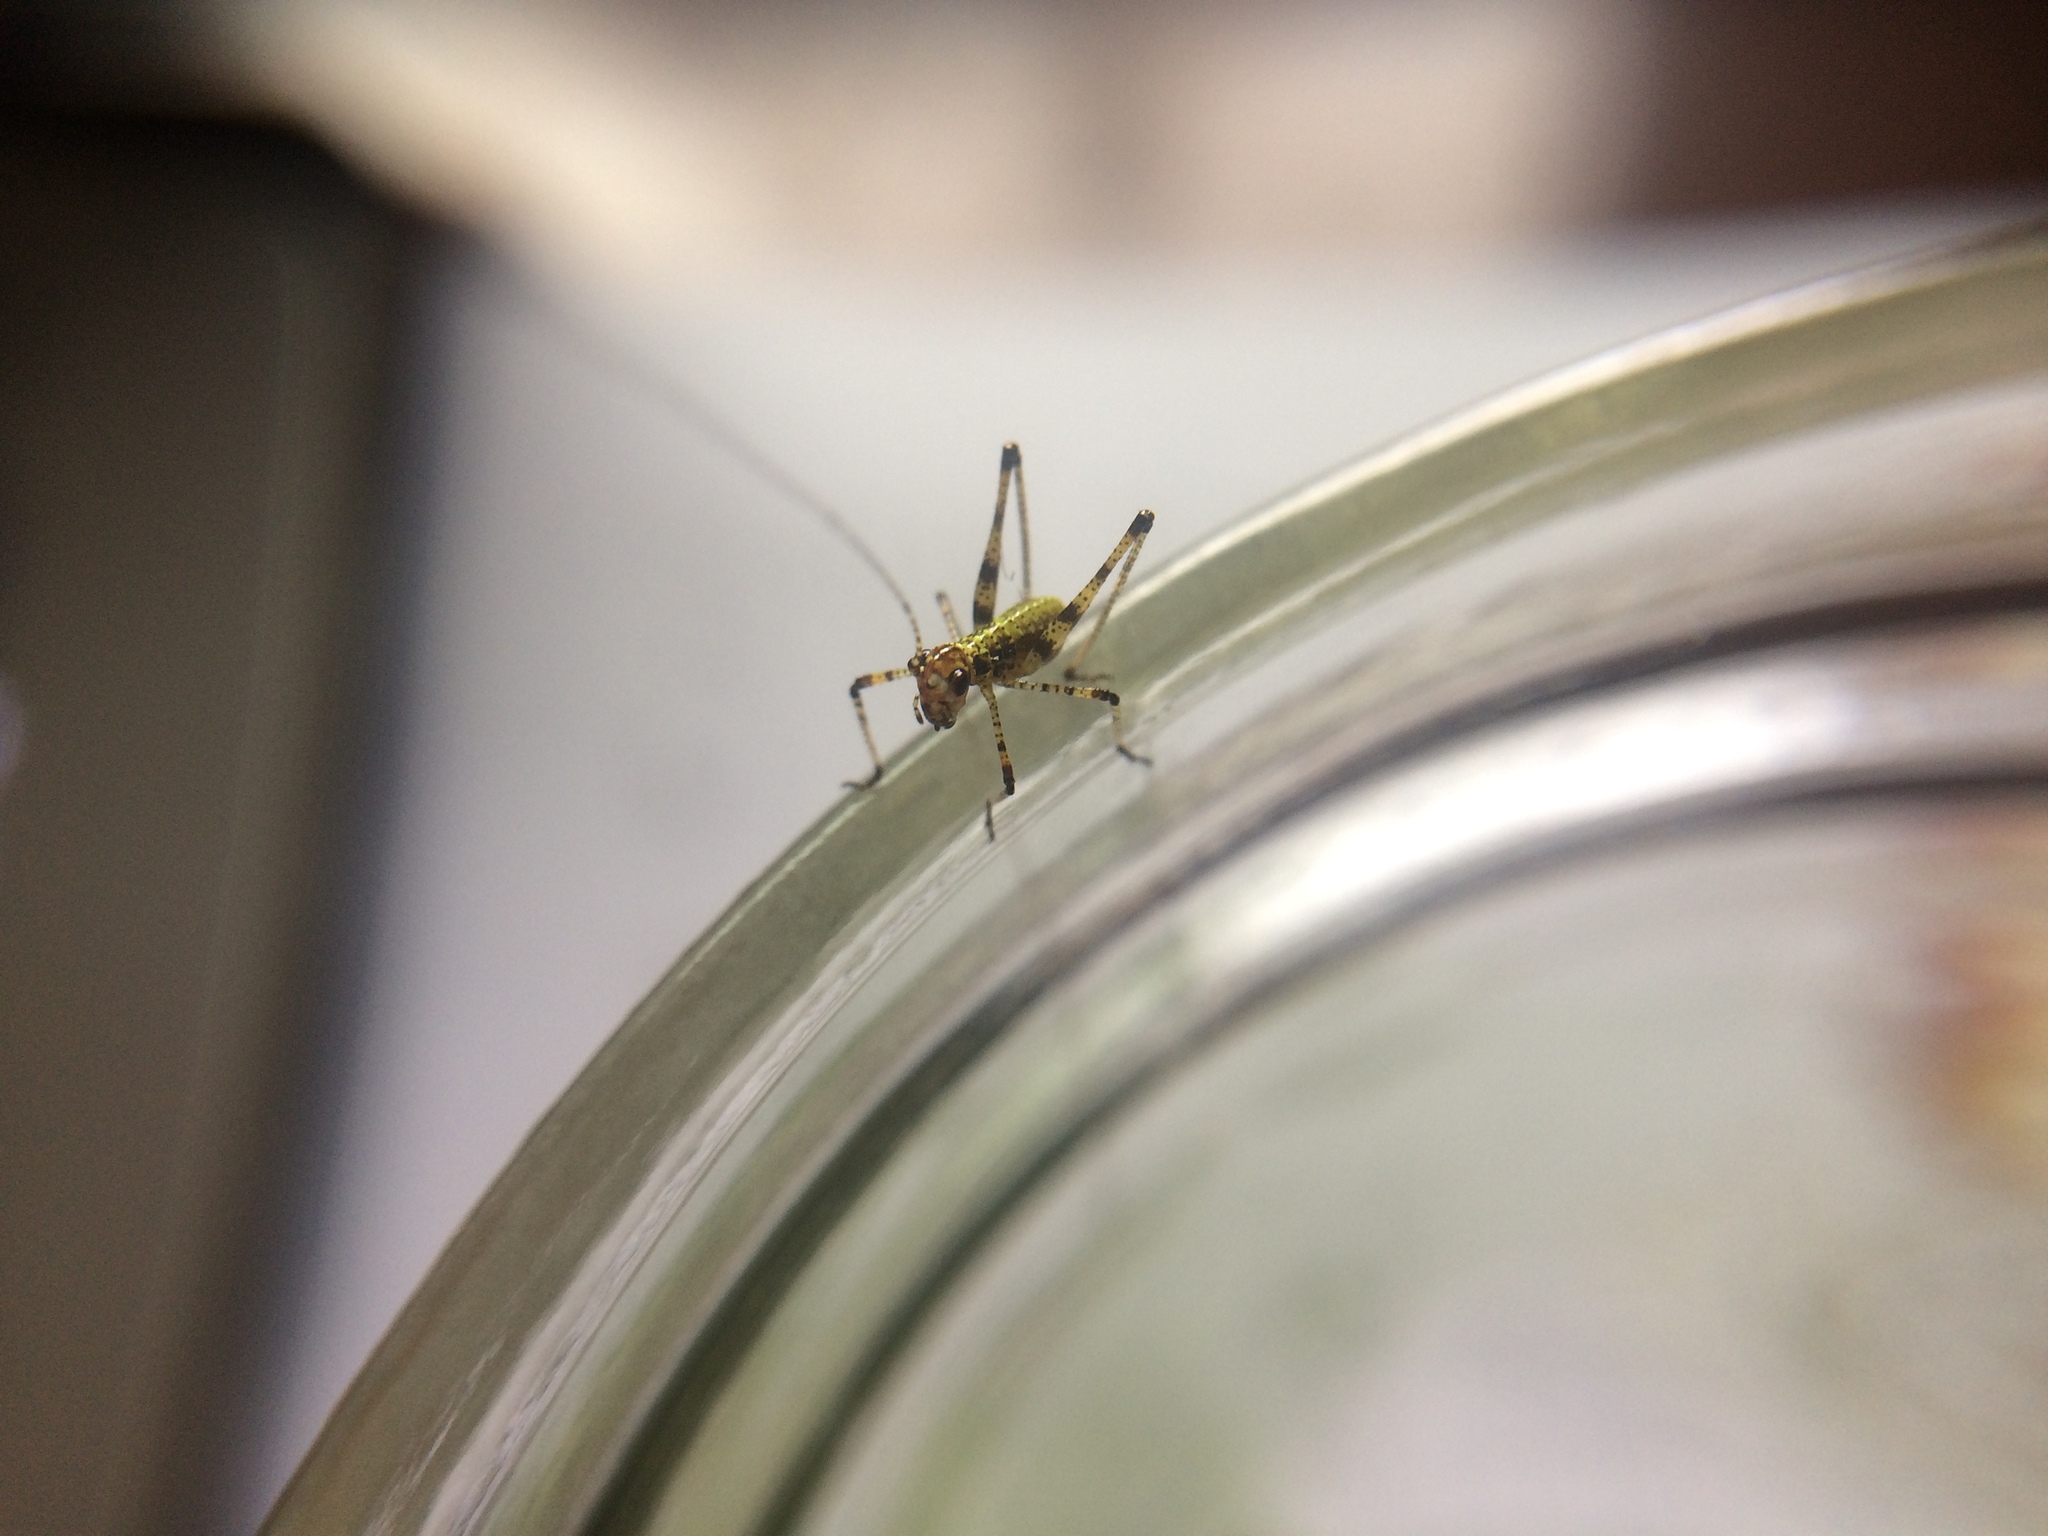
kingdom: Animalia
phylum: Arthropoda
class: Insecta
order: Orthoptera
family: Tettigoniidae
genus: Phaneroptera
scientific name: Phaneroptera nana
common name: Southern sickle bush-cricket
